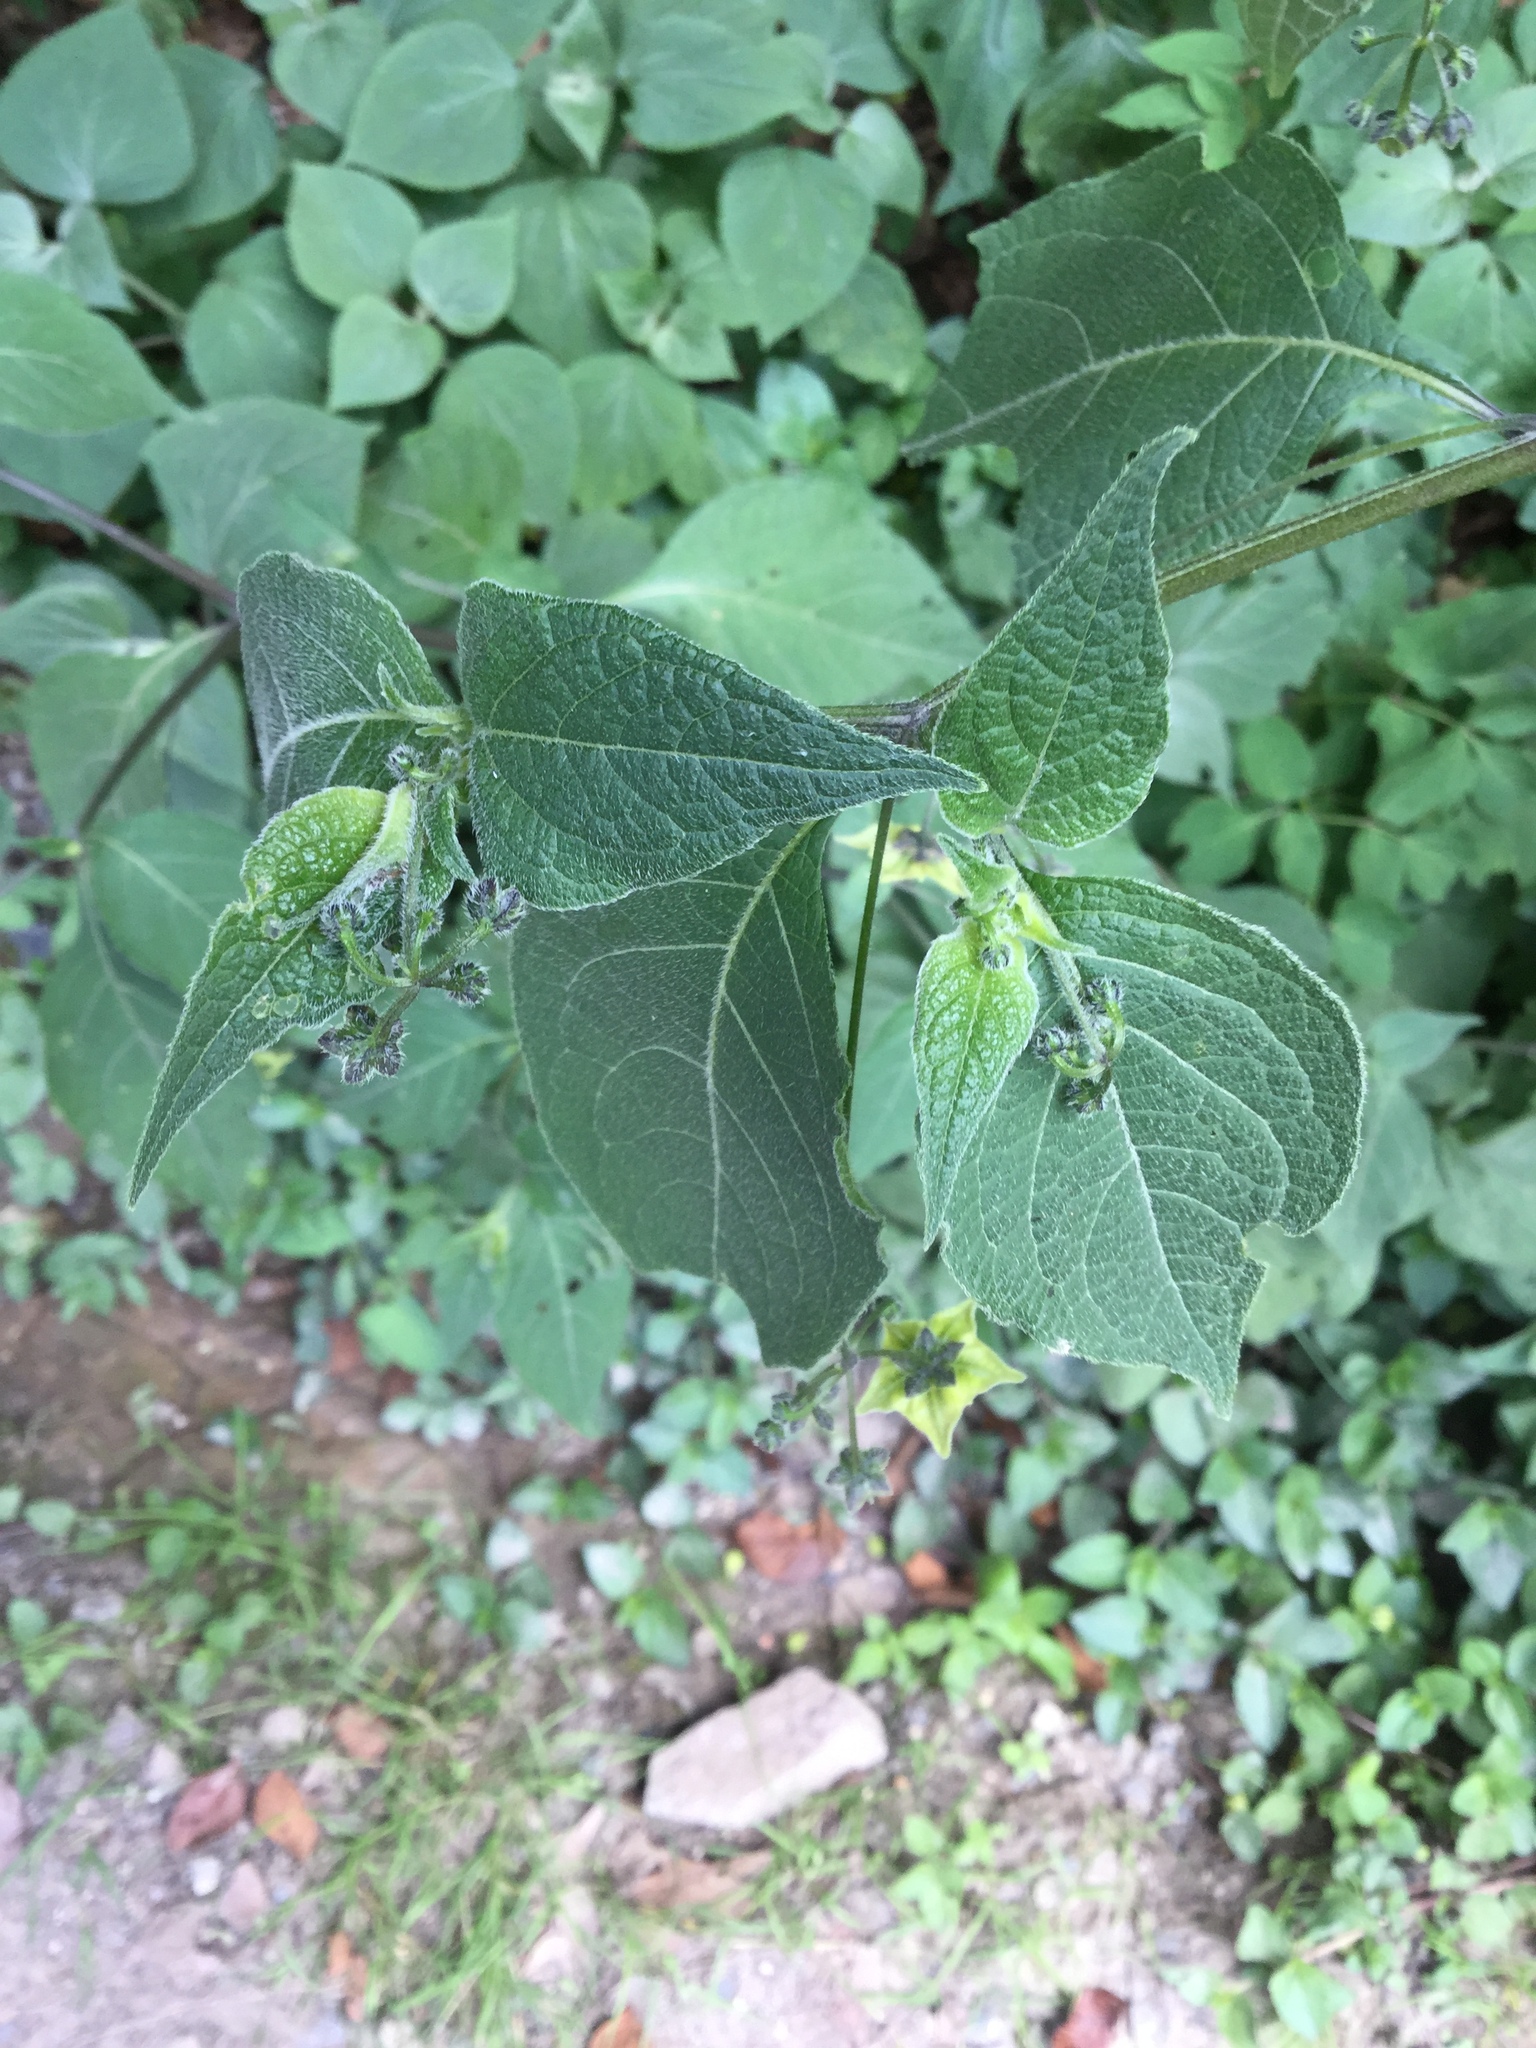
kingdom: Plantae
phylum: Tracheophyta
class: Magnoliopsida
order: Solanales
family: Solanaceae
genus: Jaltomata
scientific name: Jaltomata procumbens
